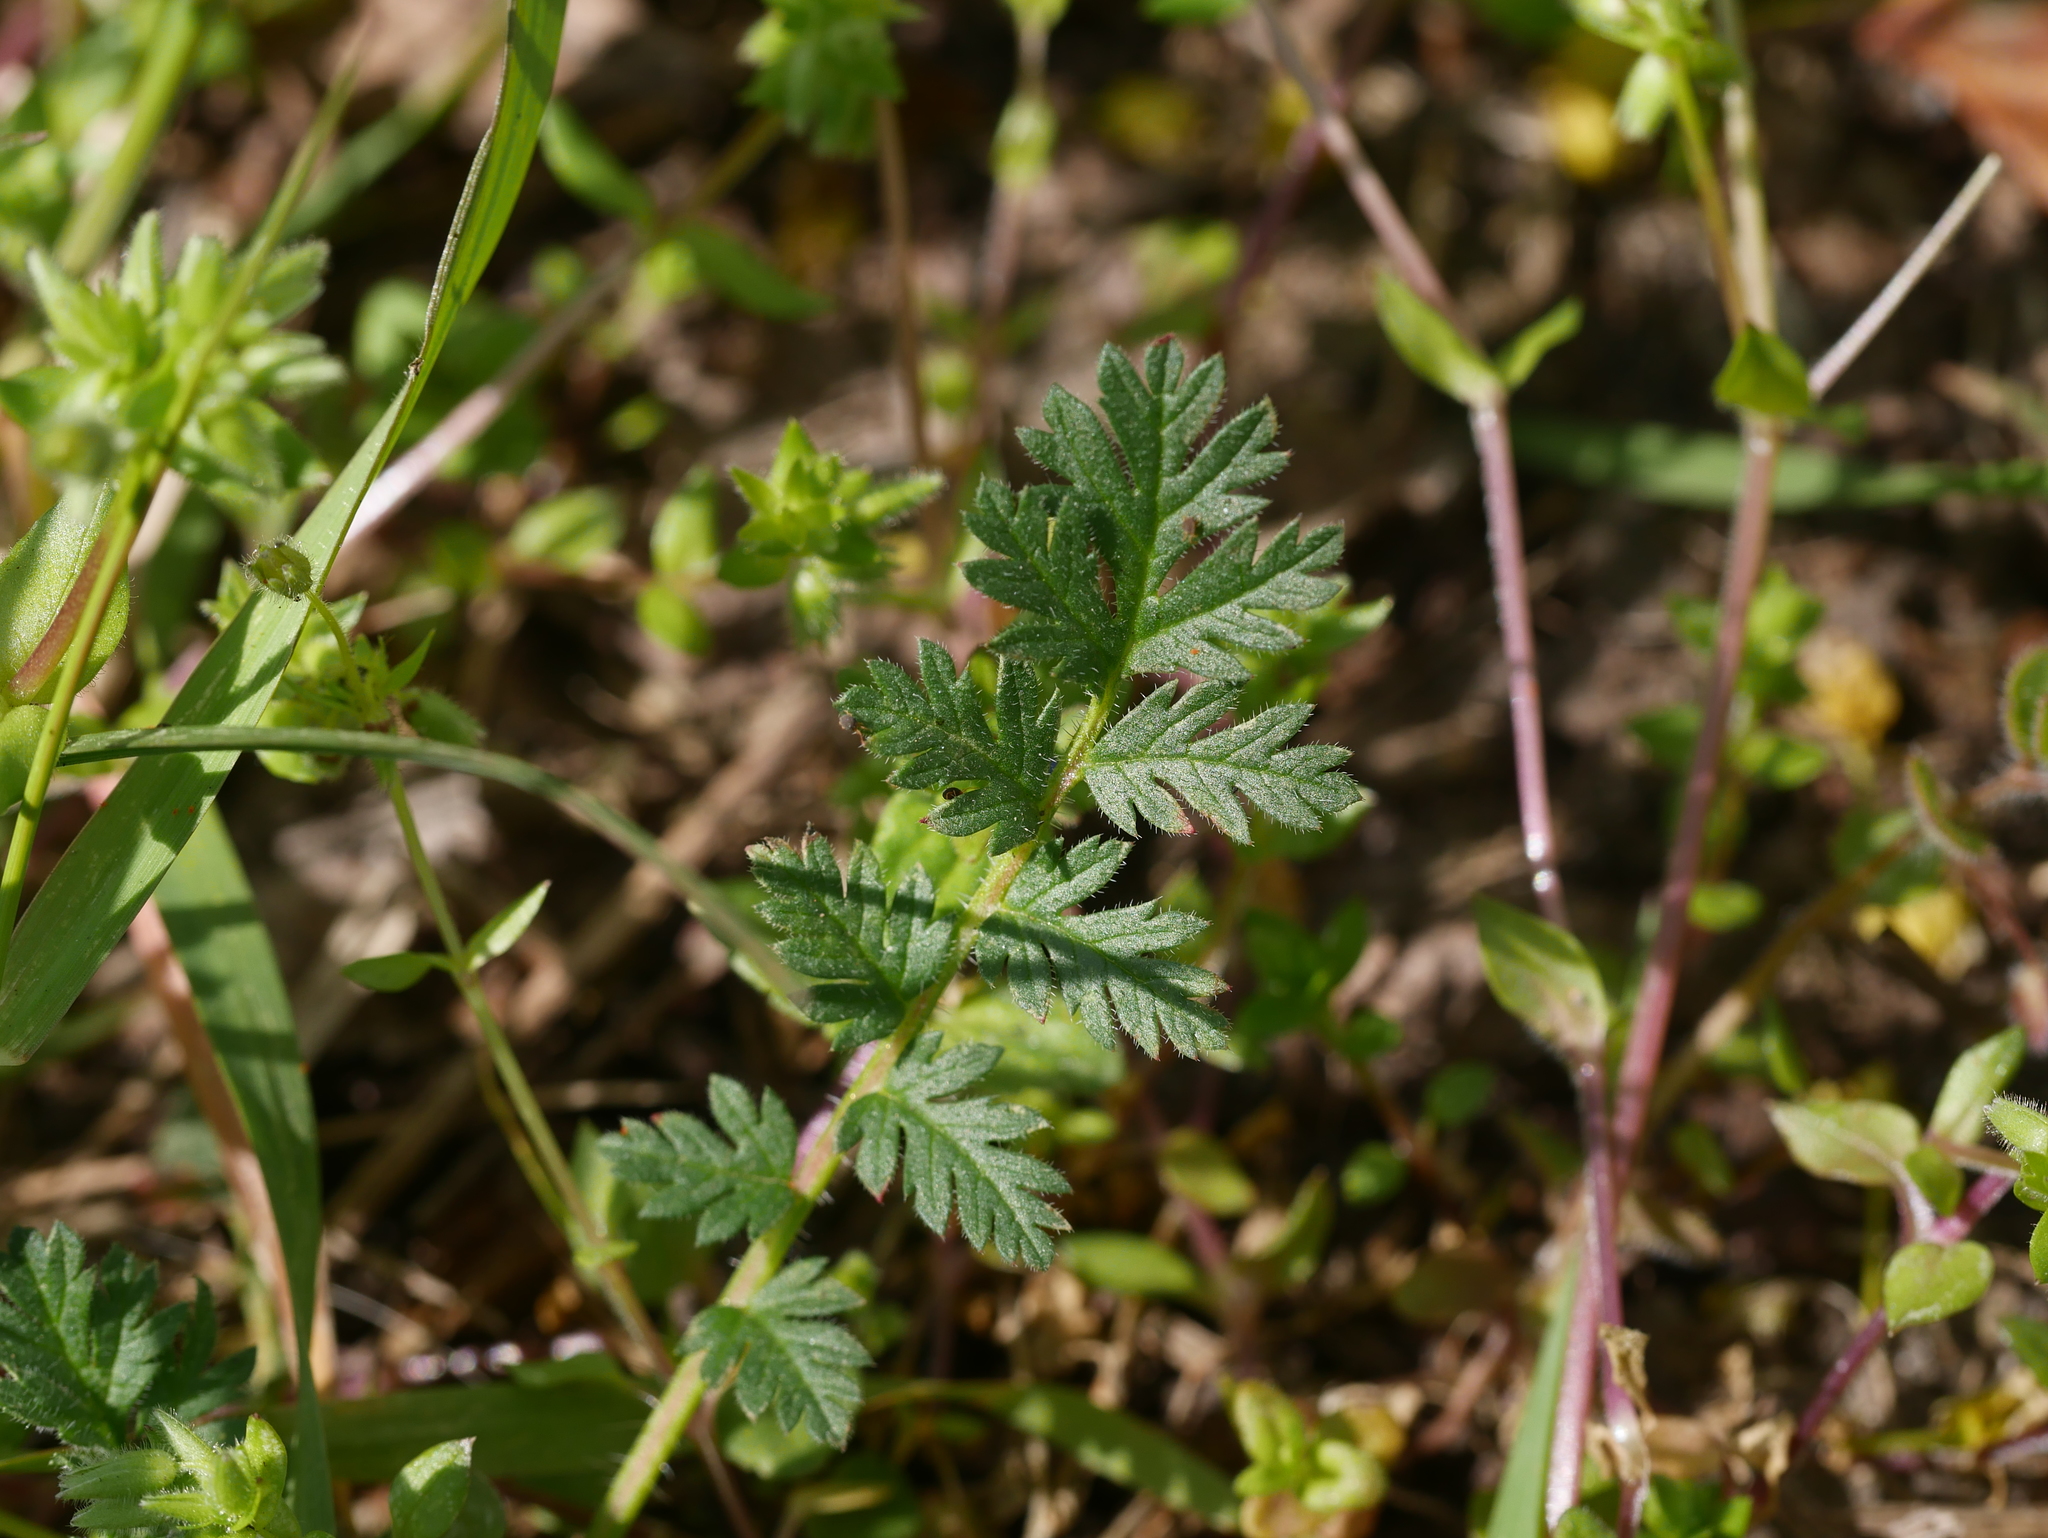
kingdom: Plantae
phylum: Tracheophyta
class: Magnoliopsida
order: Geraniales
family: Geraniaceae
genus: Erodium
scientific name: Erodium cicutarium
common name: Common stork's-bill
